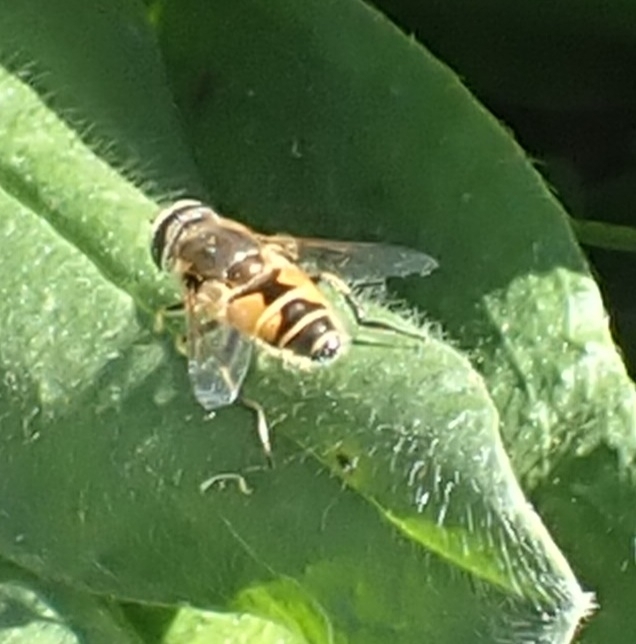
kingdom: Animalia
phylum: Arthropoda
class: Insecta
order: Diptera
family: Syrphidae
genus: Eristalis
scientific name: Eristalis arbustorum
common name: Hover fly
